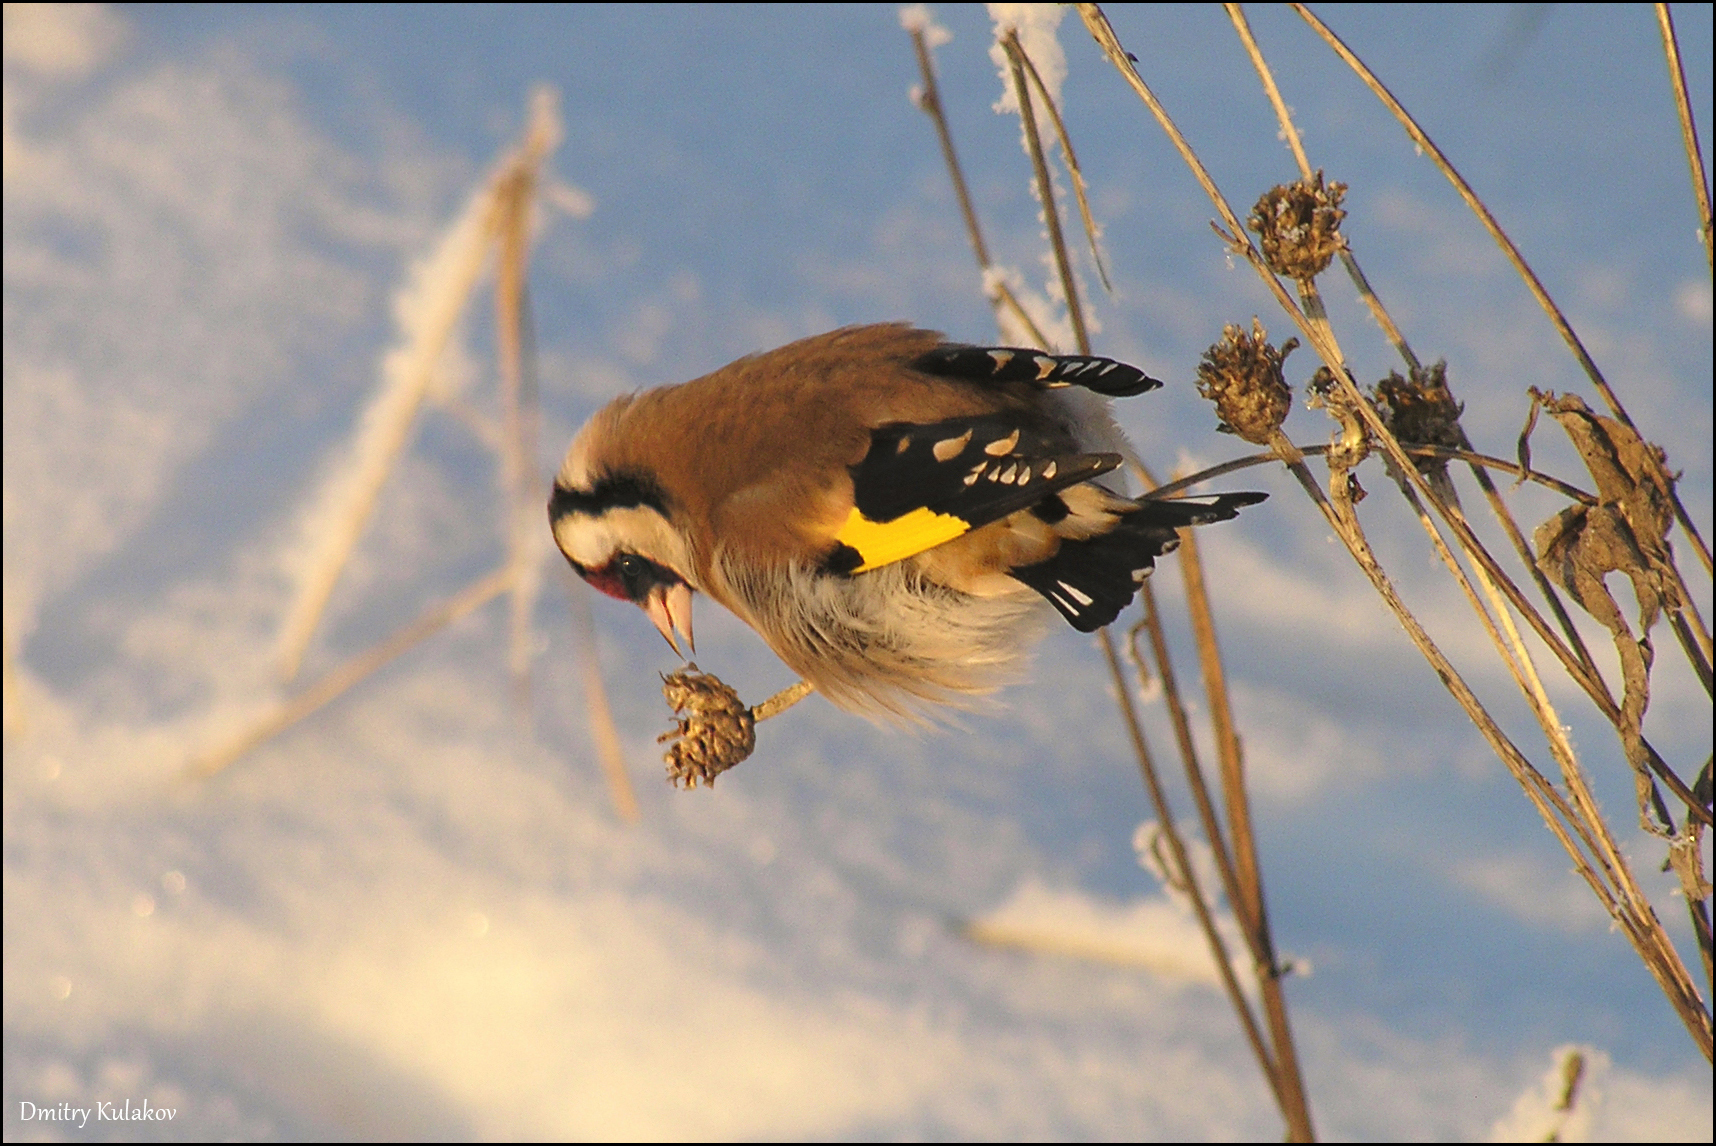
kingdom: Animalia
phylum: Chordata
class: Aves
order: Passeriformes
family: Fringillidae
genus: Carduelis
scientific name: Carduelis carduelis
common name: European goldfinch
